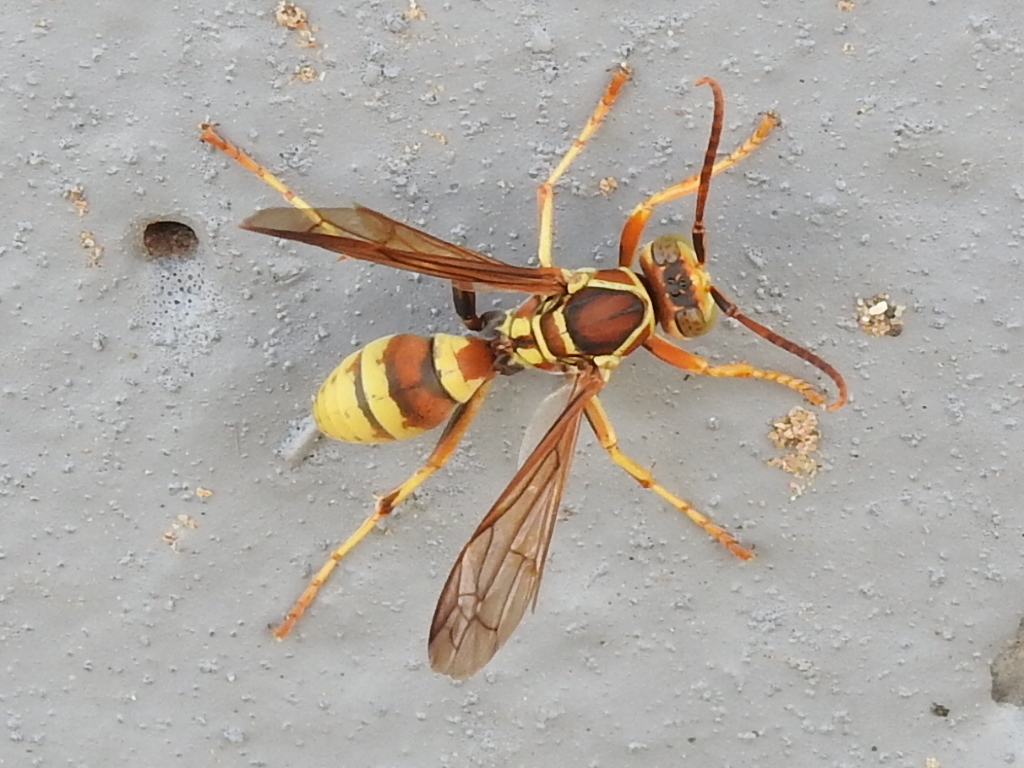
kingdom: Animalia
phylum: Arthropoda
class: Insecta
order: Hymenoptera
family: Eumenidae
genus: Polistes
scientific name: Polistes dorsalis
